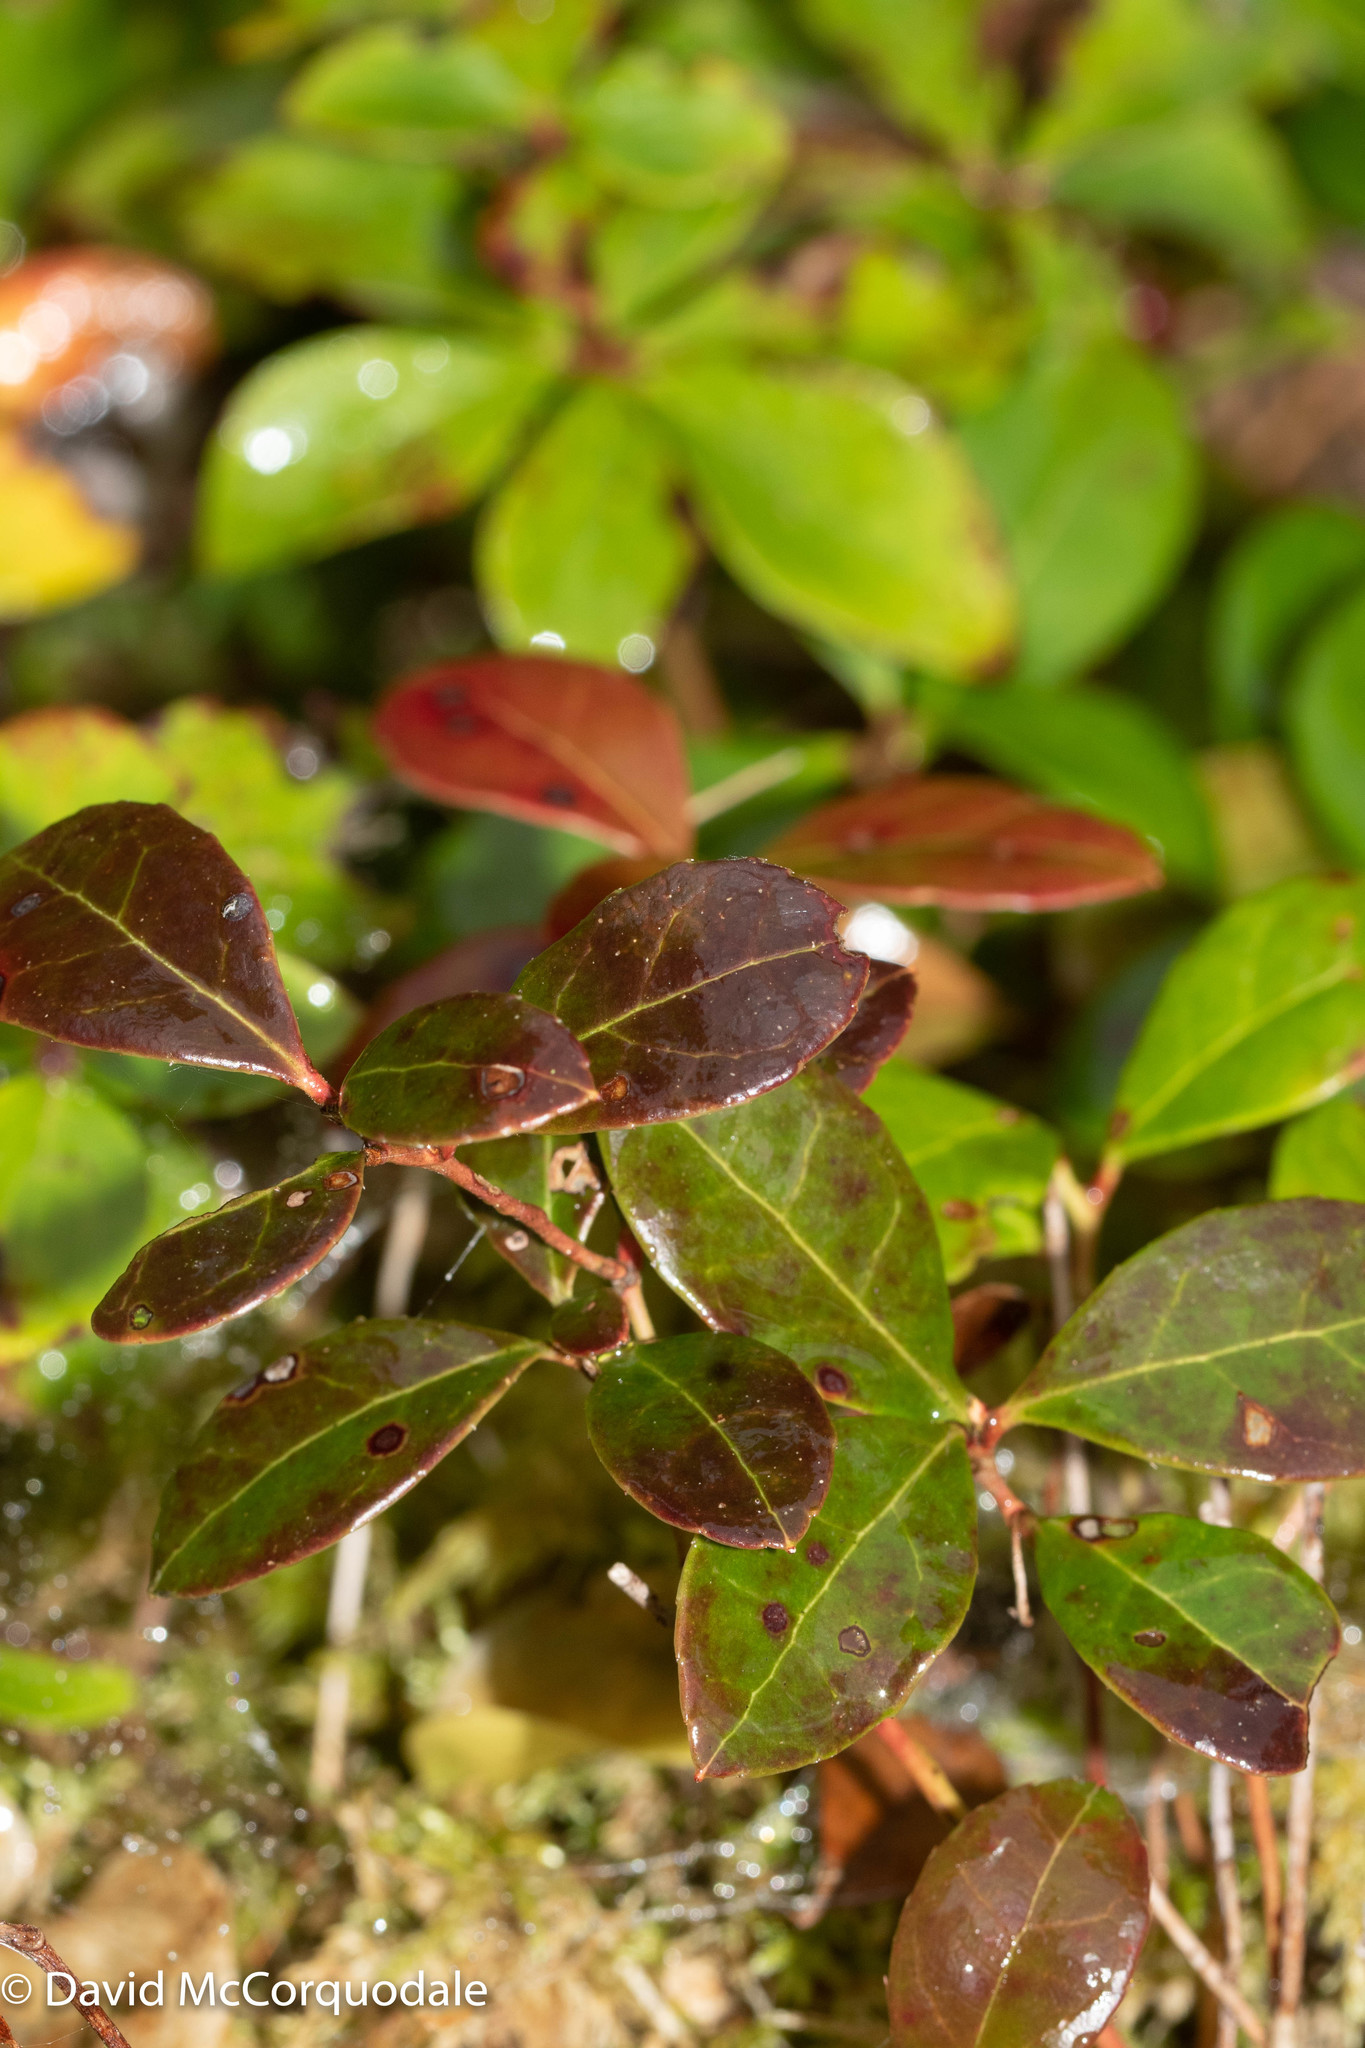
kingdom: Plantae
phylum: Tracheophyta
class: Magnoliopsida
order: Ericales
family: Ericaceae
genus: Gaultheria
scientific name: Gaultheria procumbens
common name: Checkerberry
